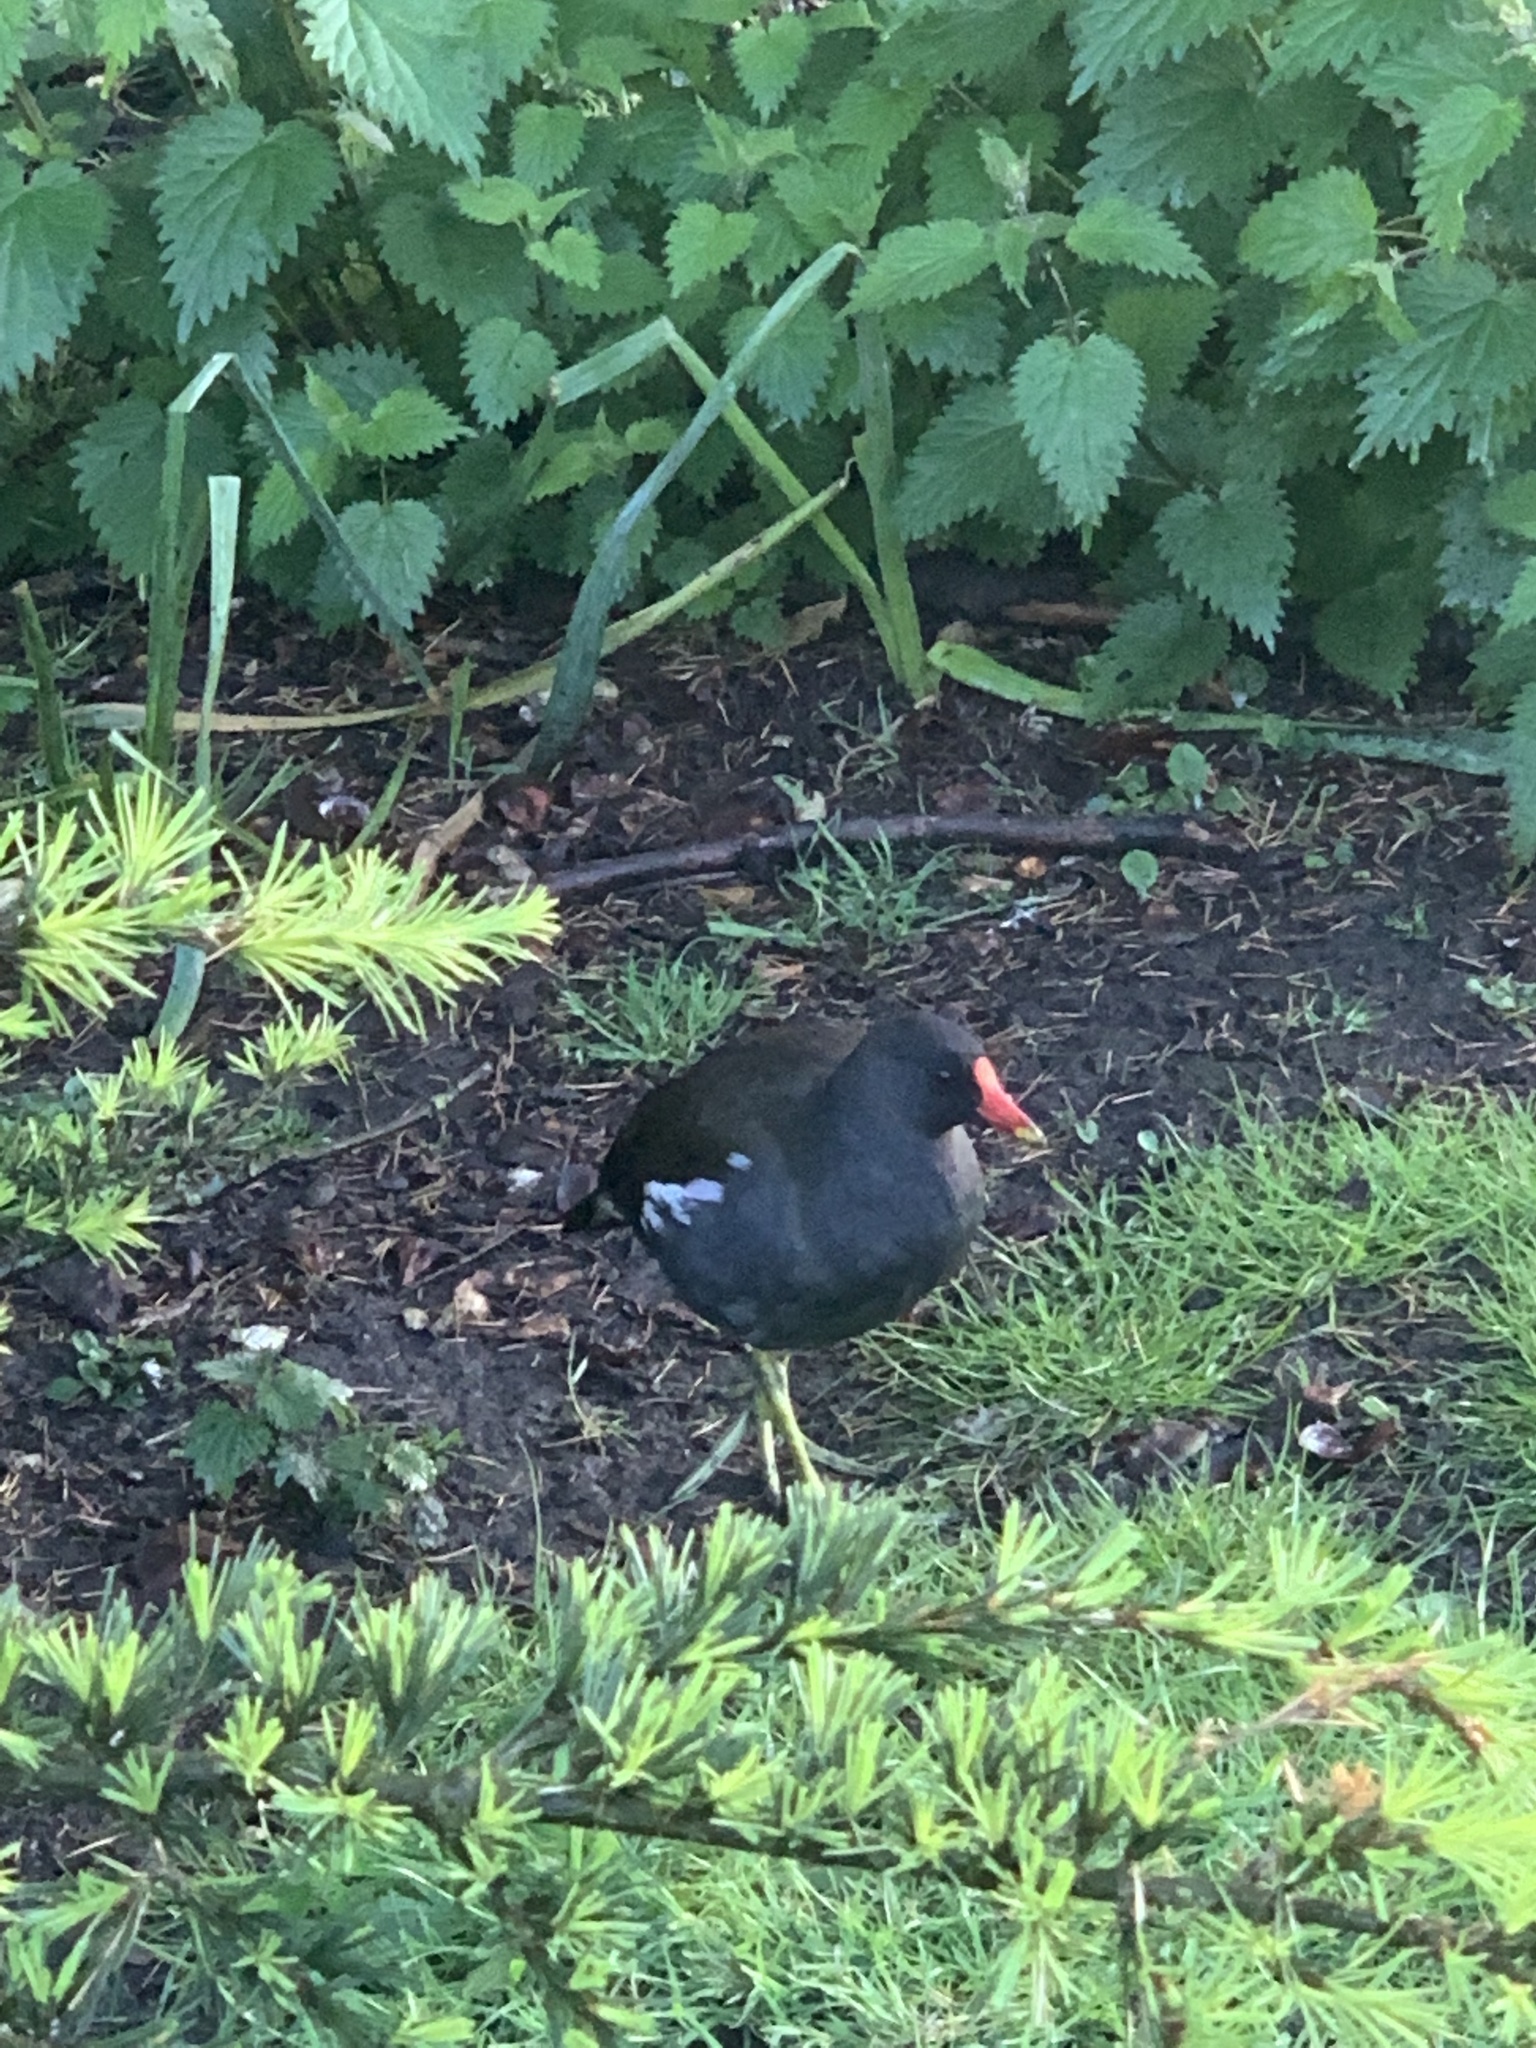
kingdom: Animalia
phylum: Chordata
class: Aves
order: Gruiformes
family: Rallidae
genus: Gallinula
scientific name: Gallinula chloropus
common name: Common moorhen
